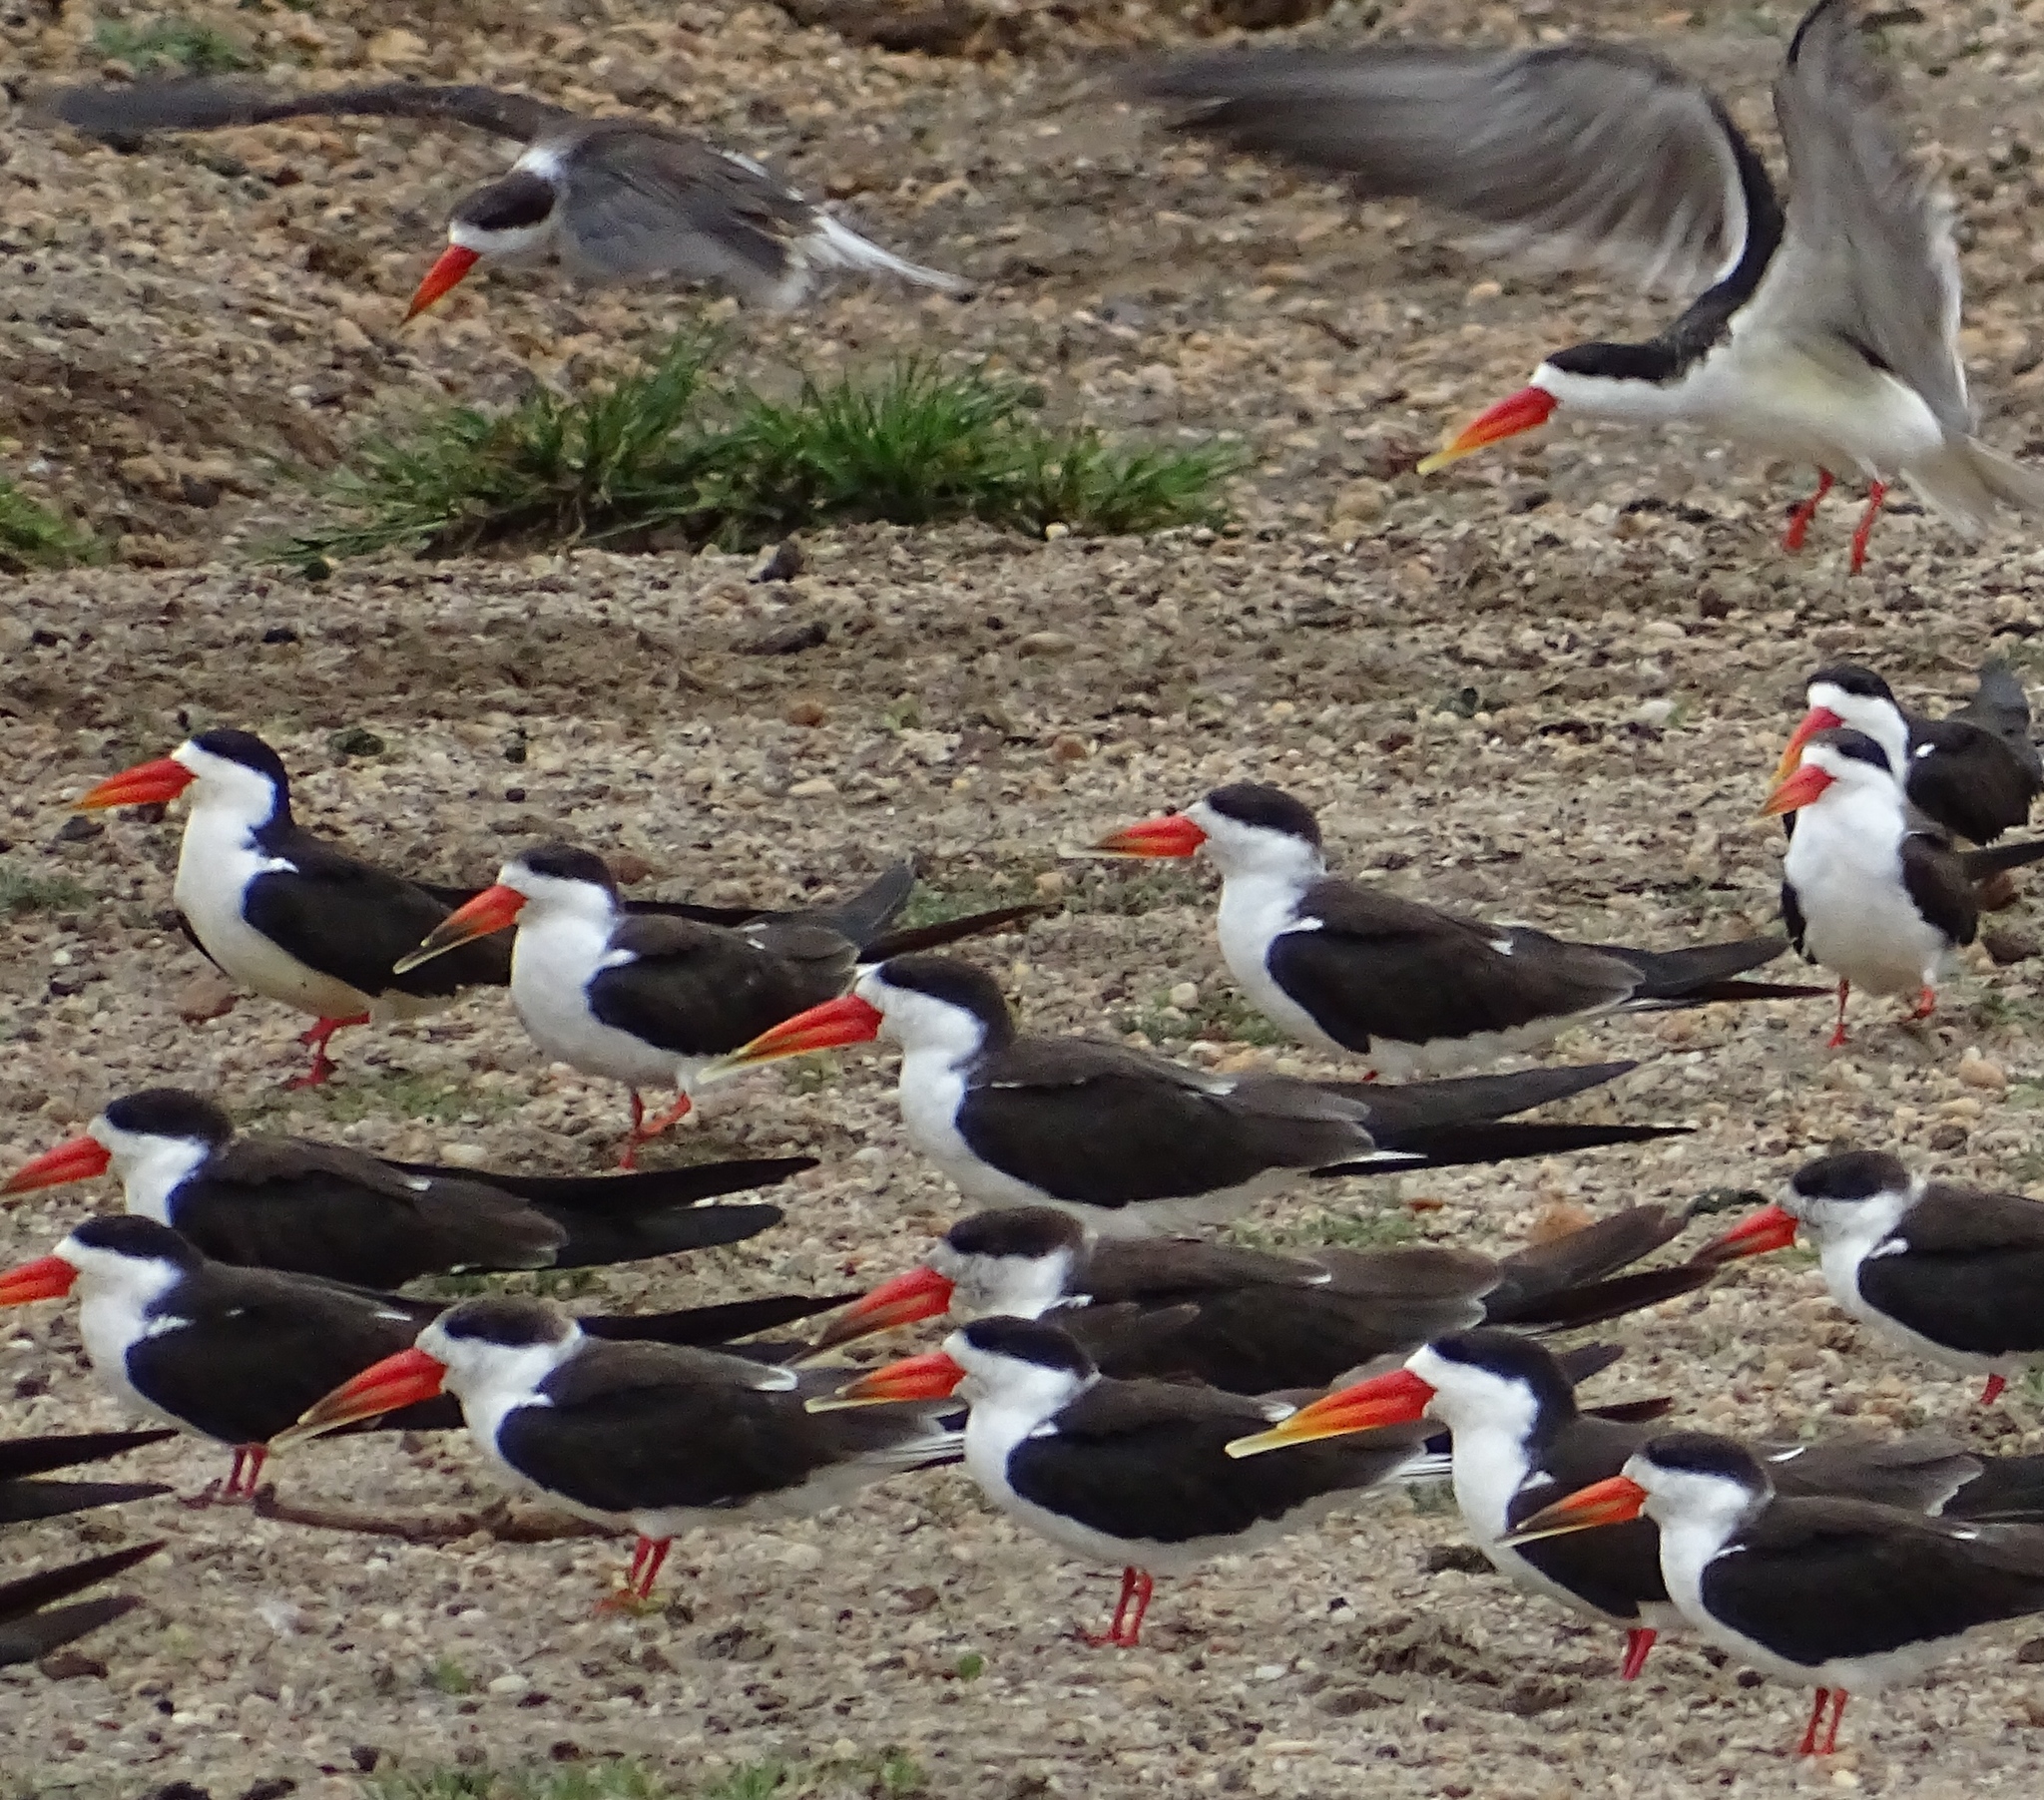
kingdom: Animalia
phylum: Chordata
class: Aves
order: Charadriiformes
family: Laridae
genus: Rynchops
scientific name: Rynchops flavirostris
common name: African skimmer
